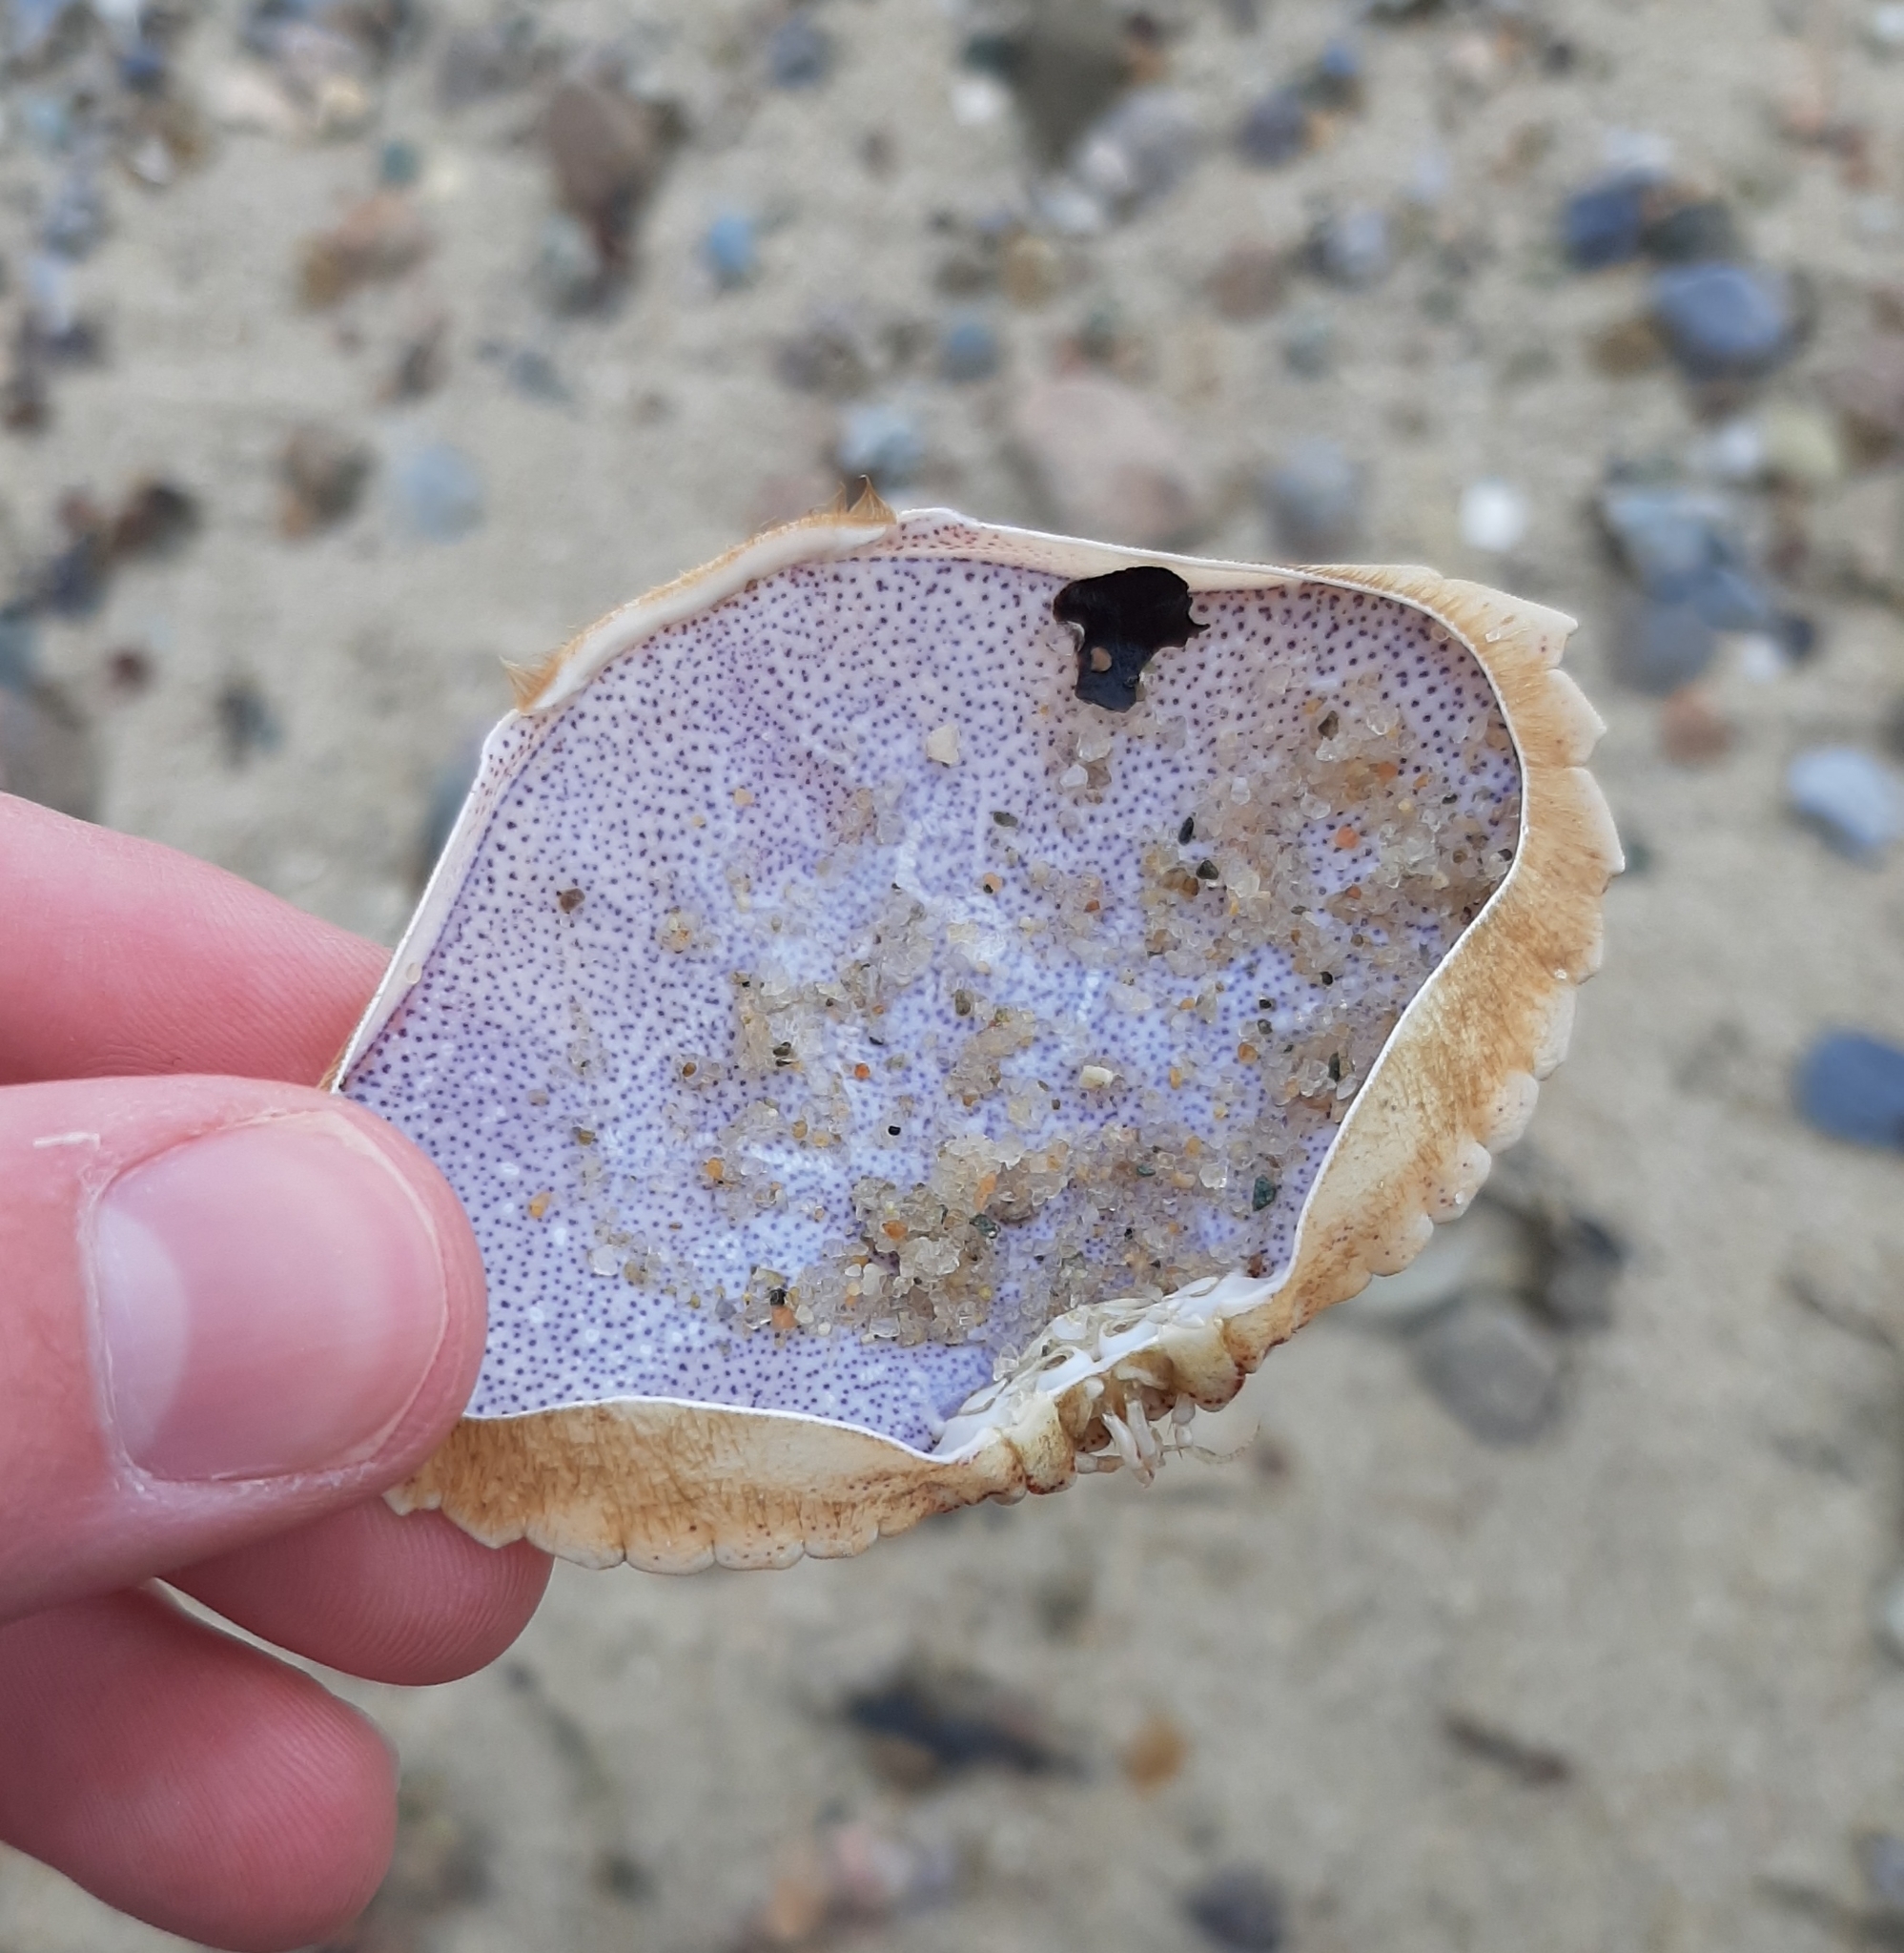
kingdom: Animalia
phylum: Arthropoda
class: Malacostraca
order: Decapoda
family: Cancridae
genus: Cancer
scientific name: Cancer irroratus
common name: Atlantic rock crab
